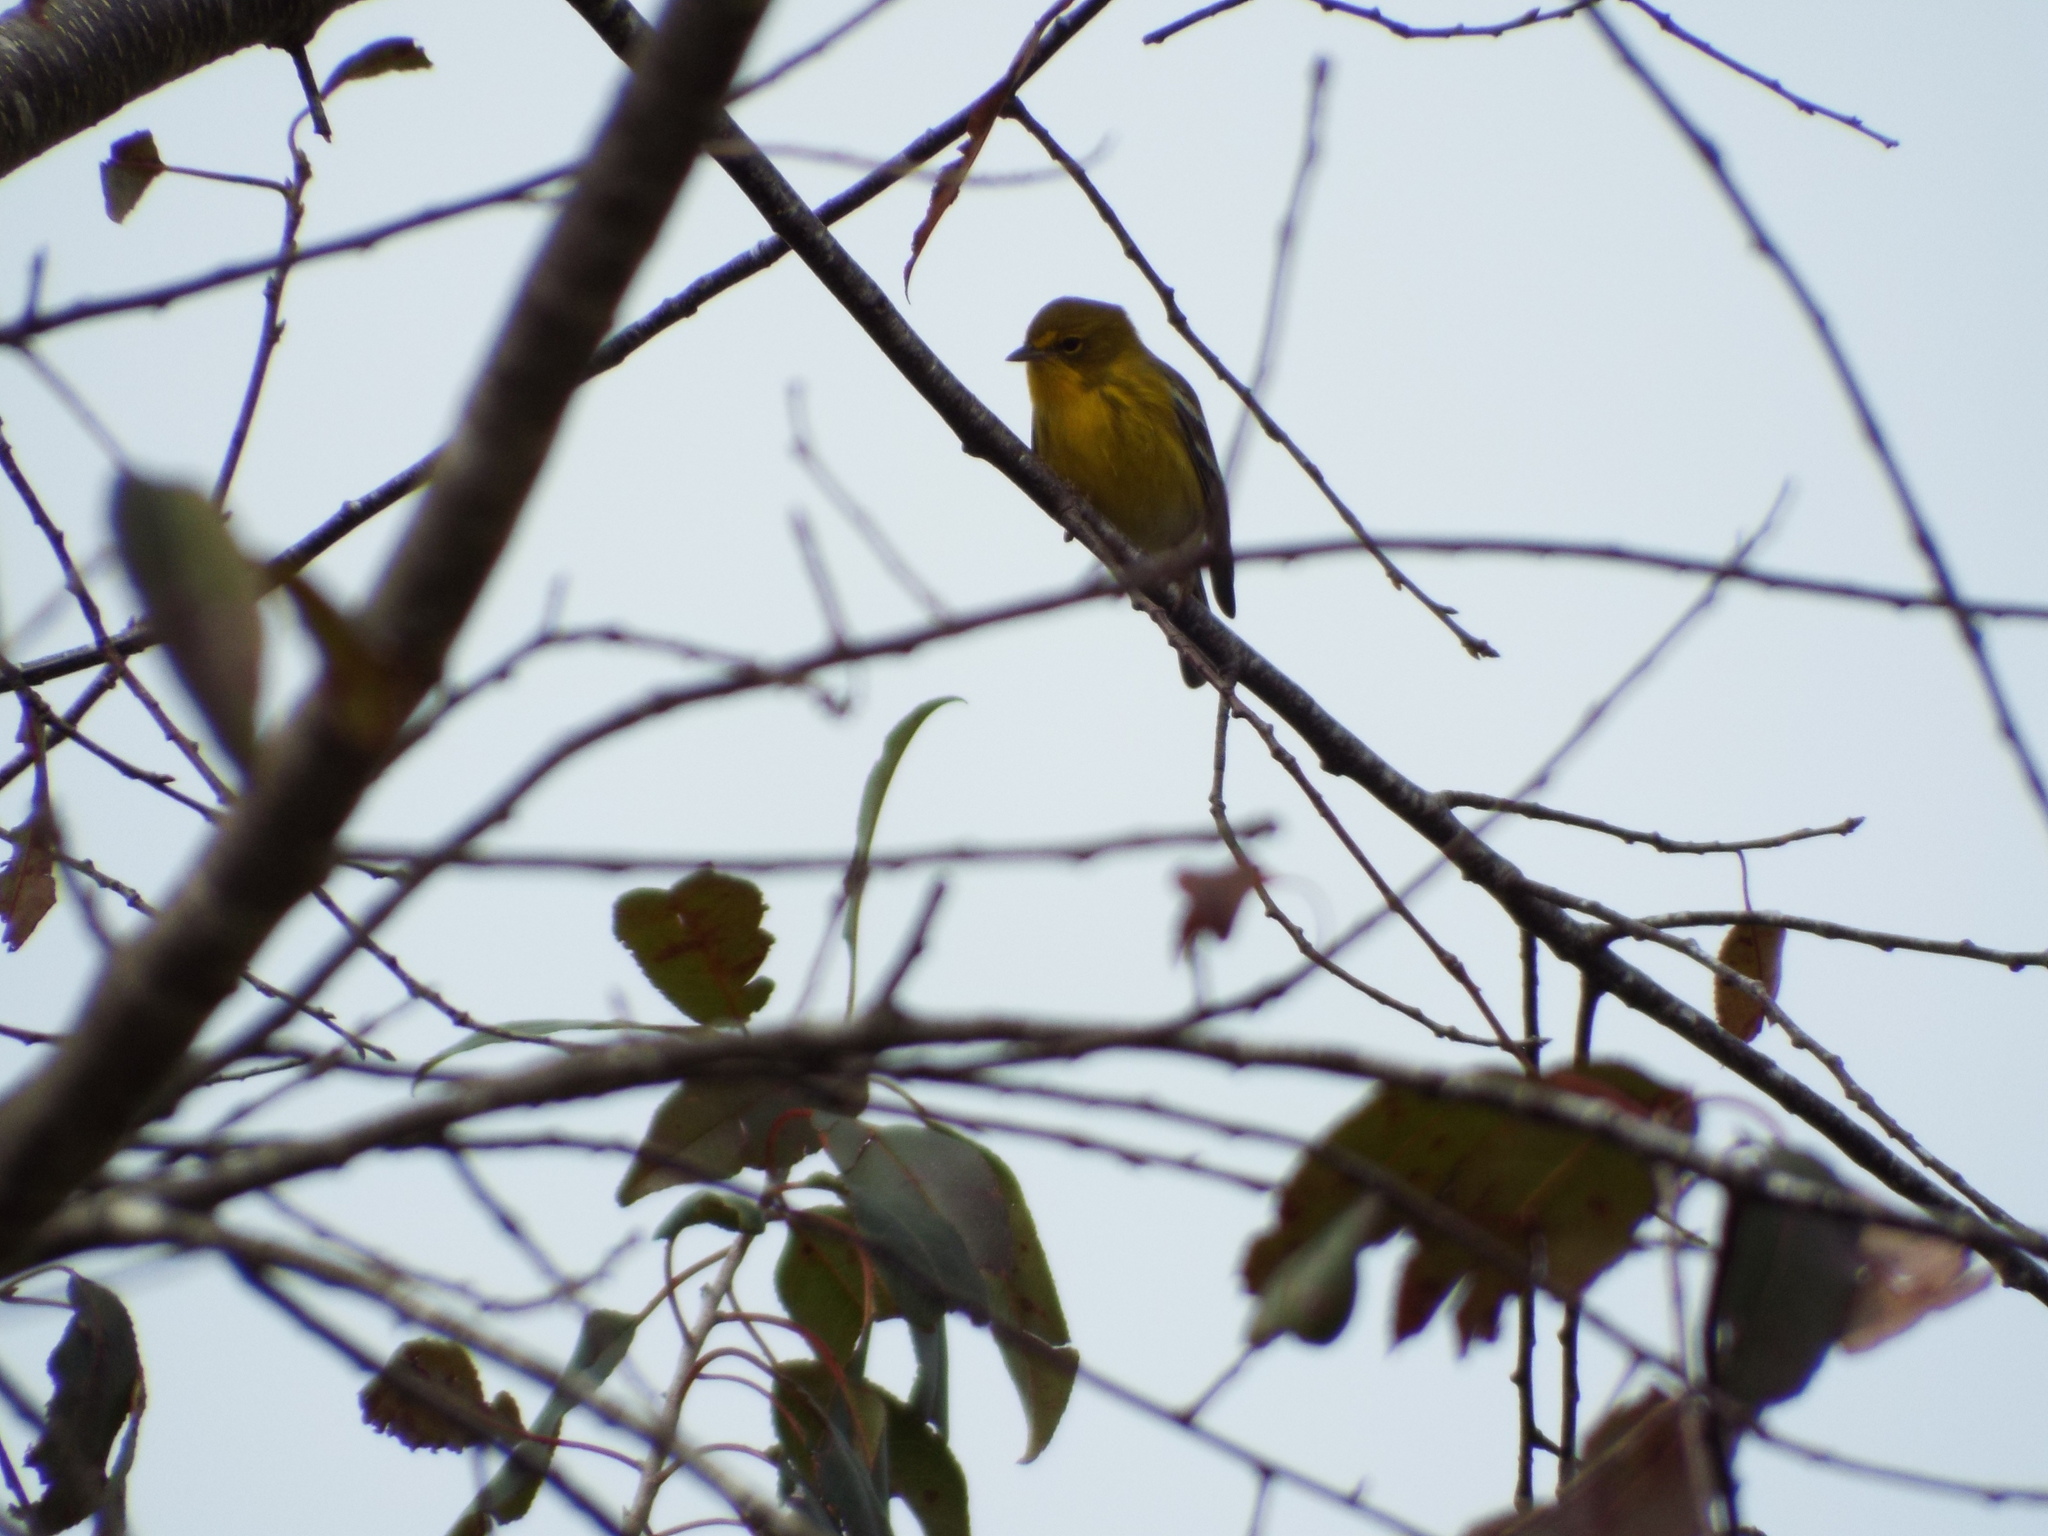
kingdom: Animalia
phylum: Chordata
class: Aves
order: Passeriformes
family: Parulidae
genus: Setophaga
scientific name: Setophaga pinus
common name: Pine warbler
